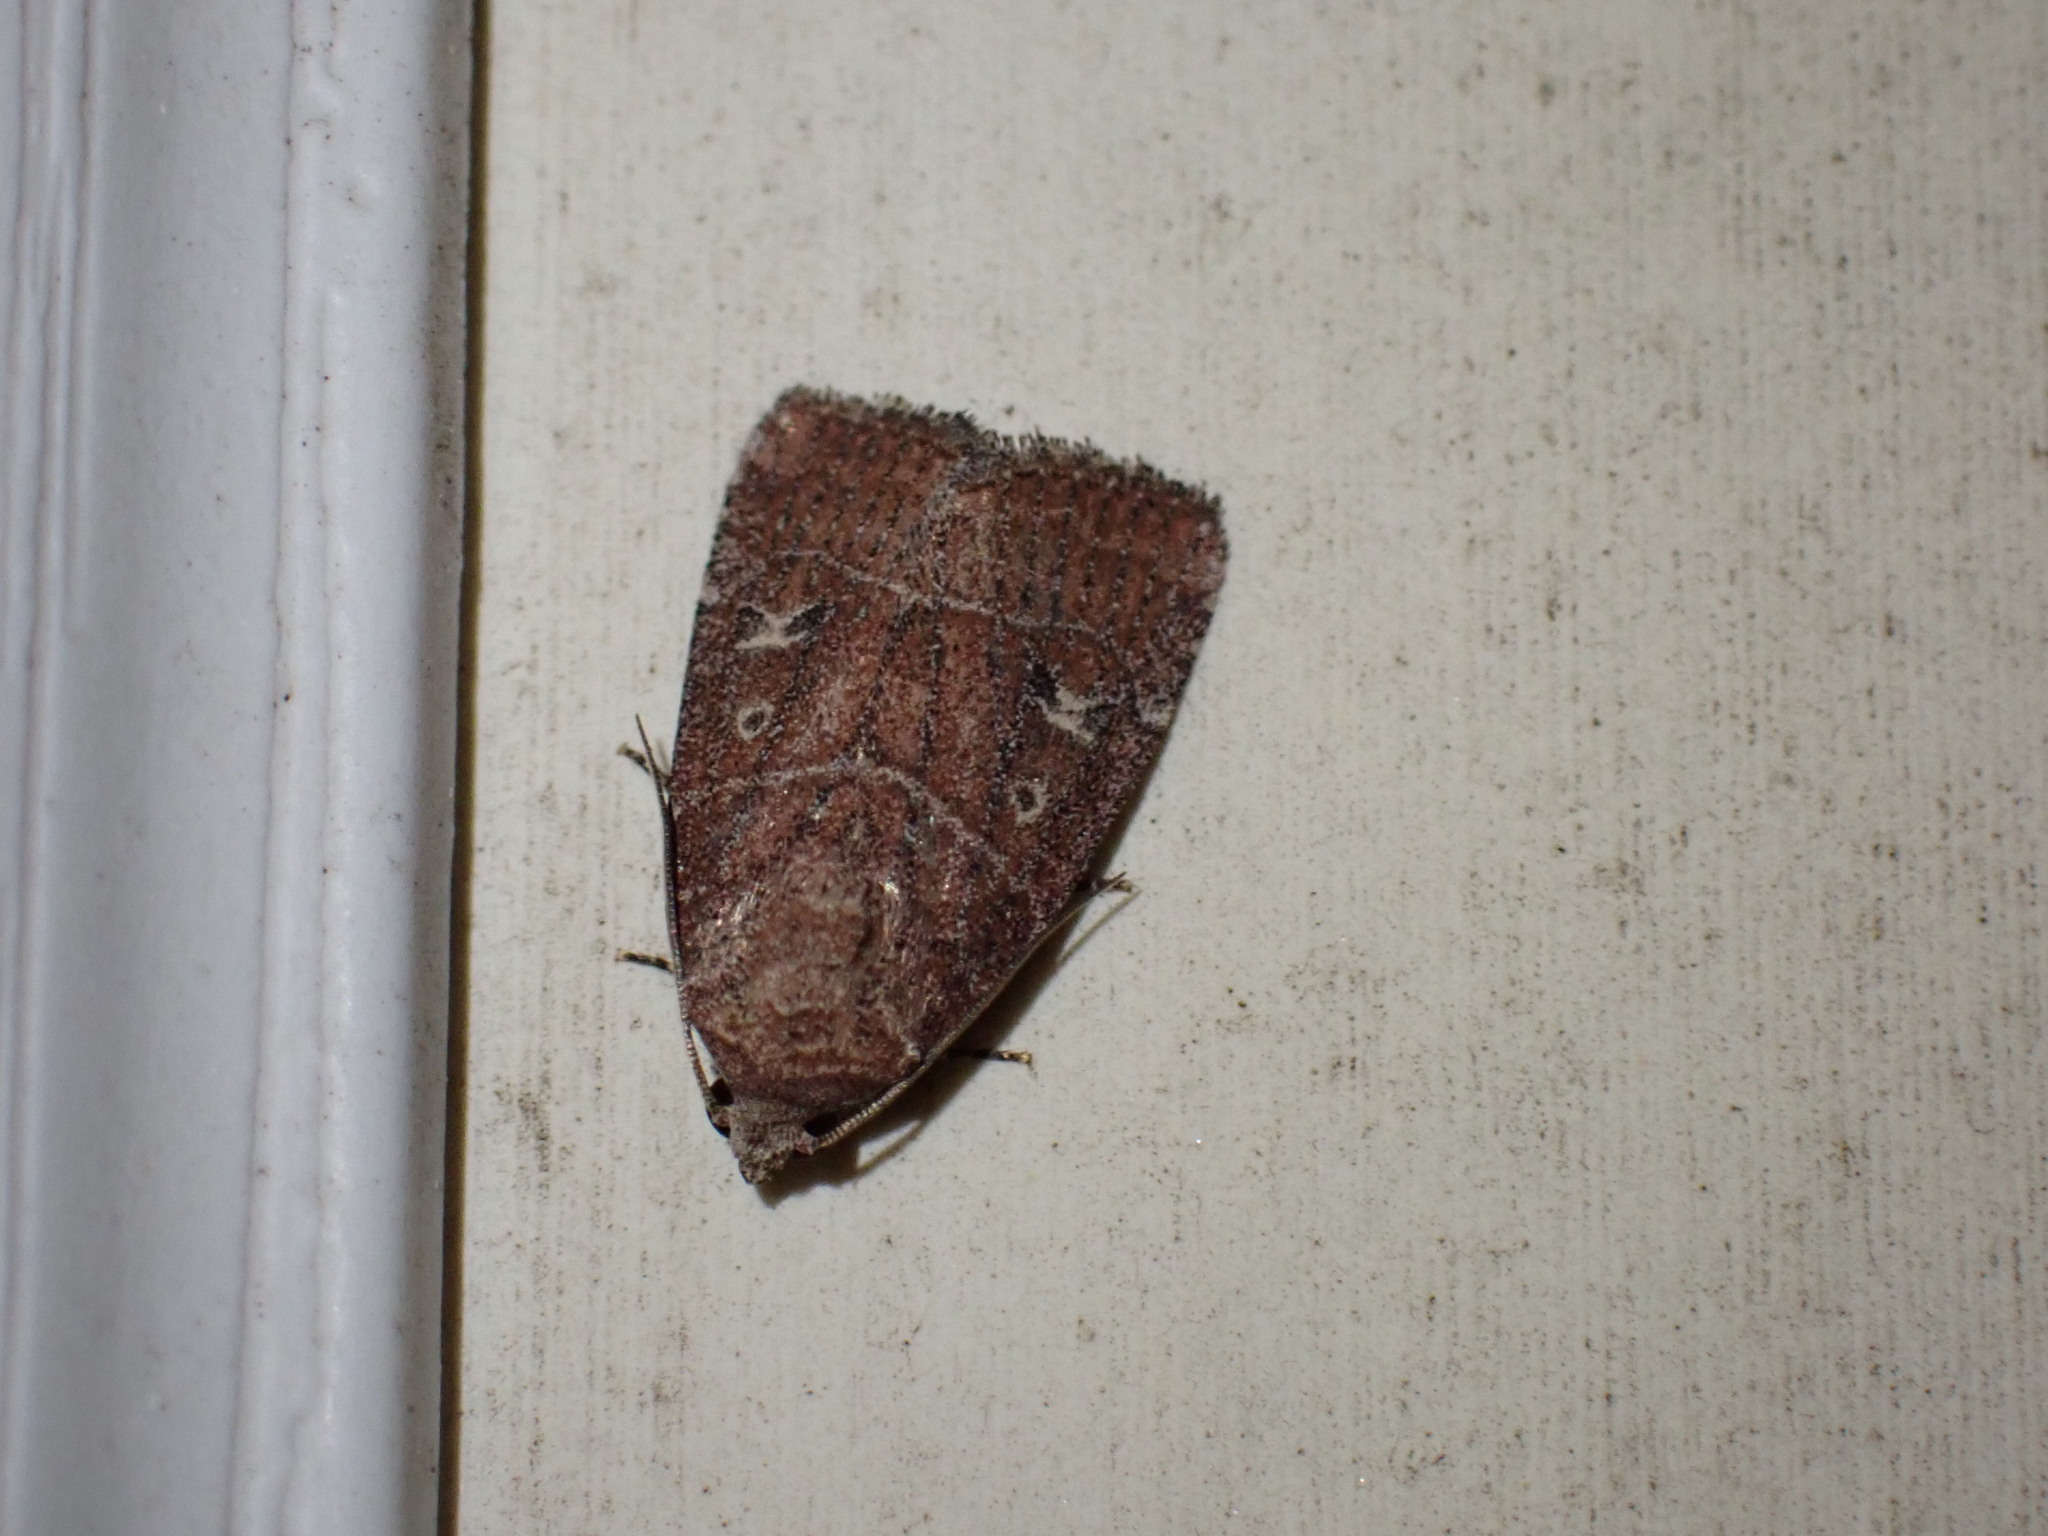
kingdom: Animalia
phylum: Arthropoda
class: Insecta
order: Lepidoptera
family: Noctuidae
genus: Elaphria
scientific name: Elaphria grata
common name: Grateful midget moth
